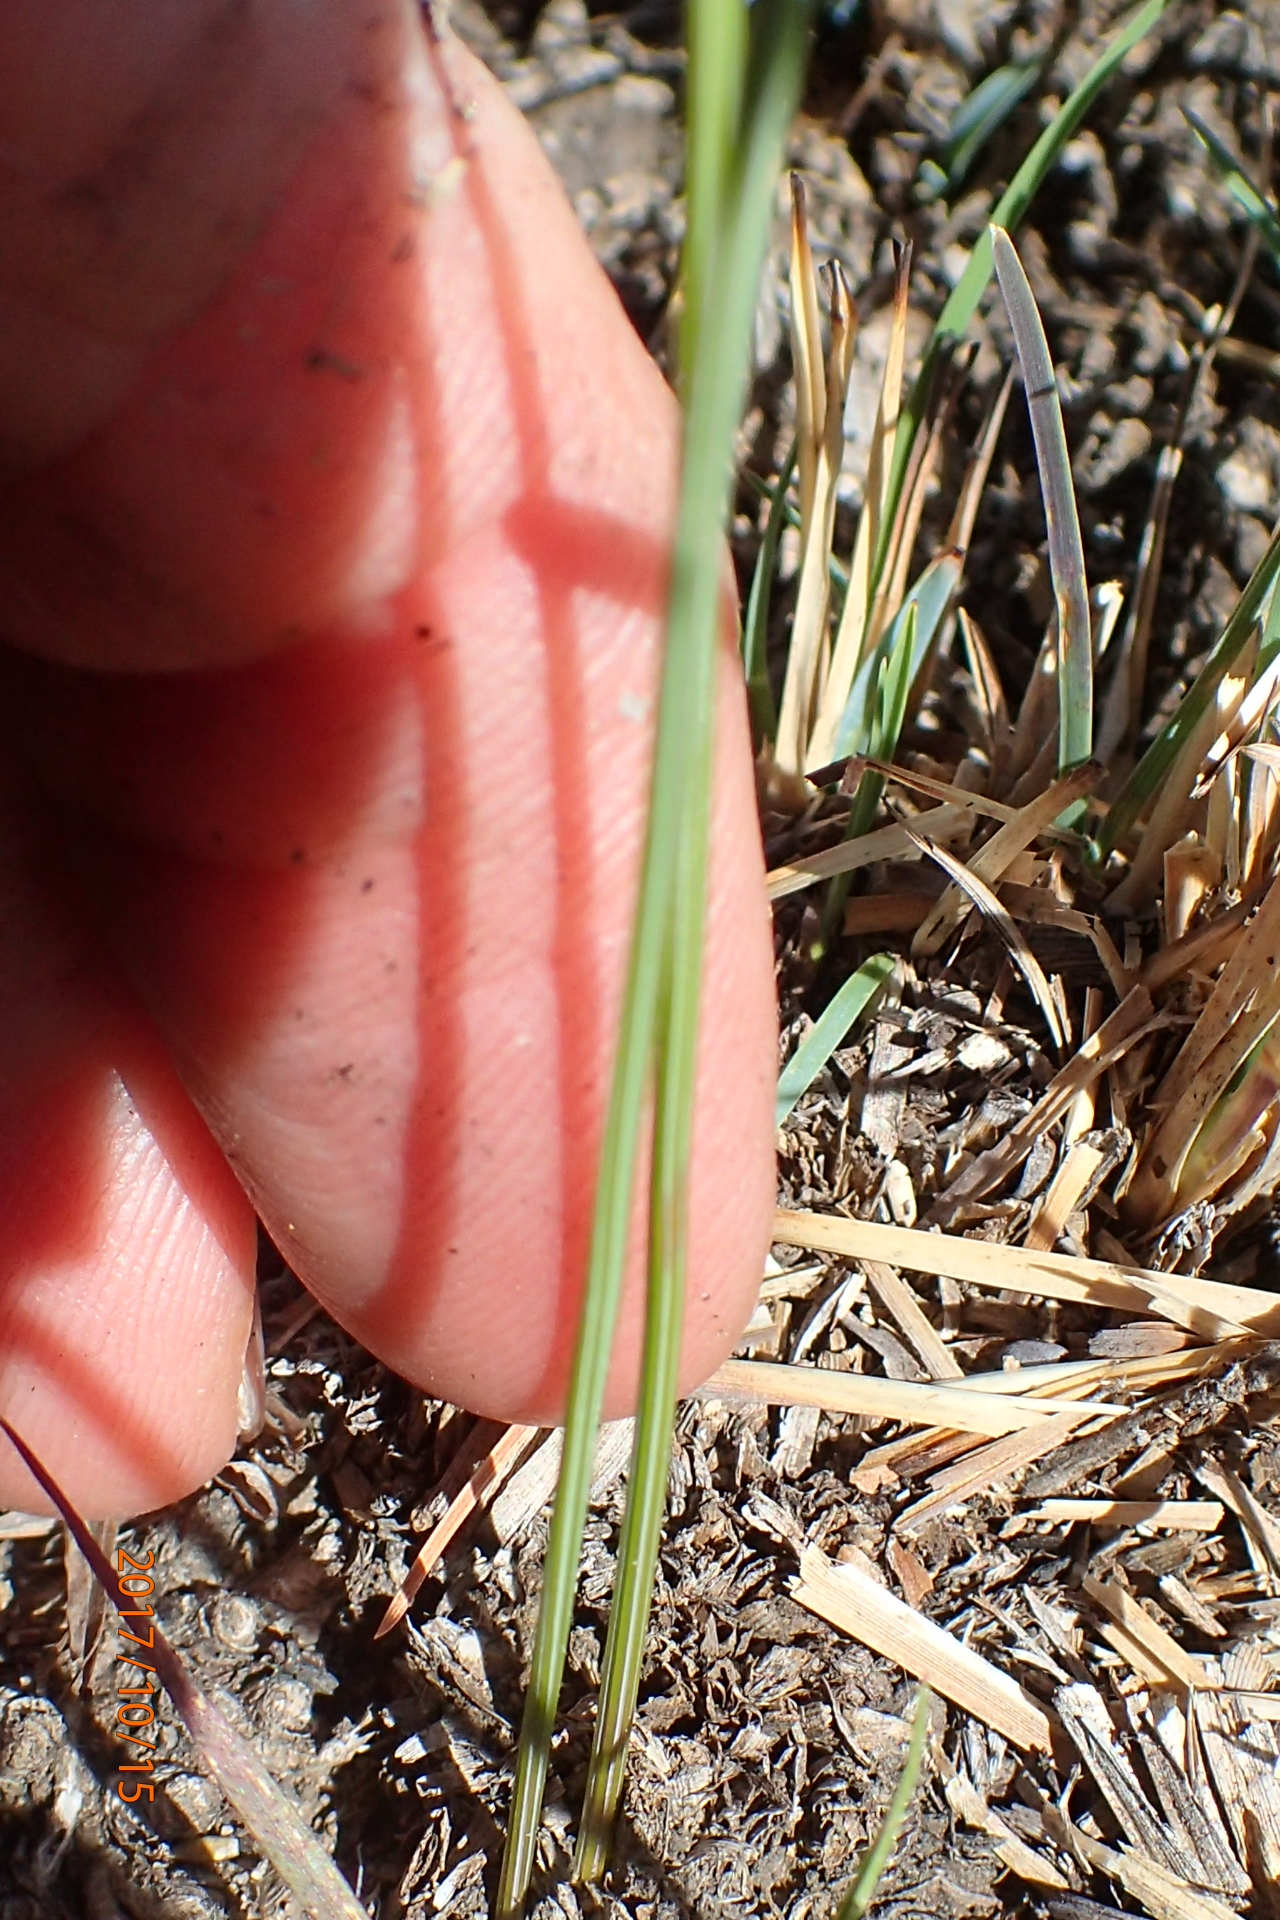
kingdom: Plantae
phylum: Tracheophyta
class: Liliopsida
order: Asparagales
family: Iridaceae
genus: Gladiolus
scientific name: Gladiolus parvulus
